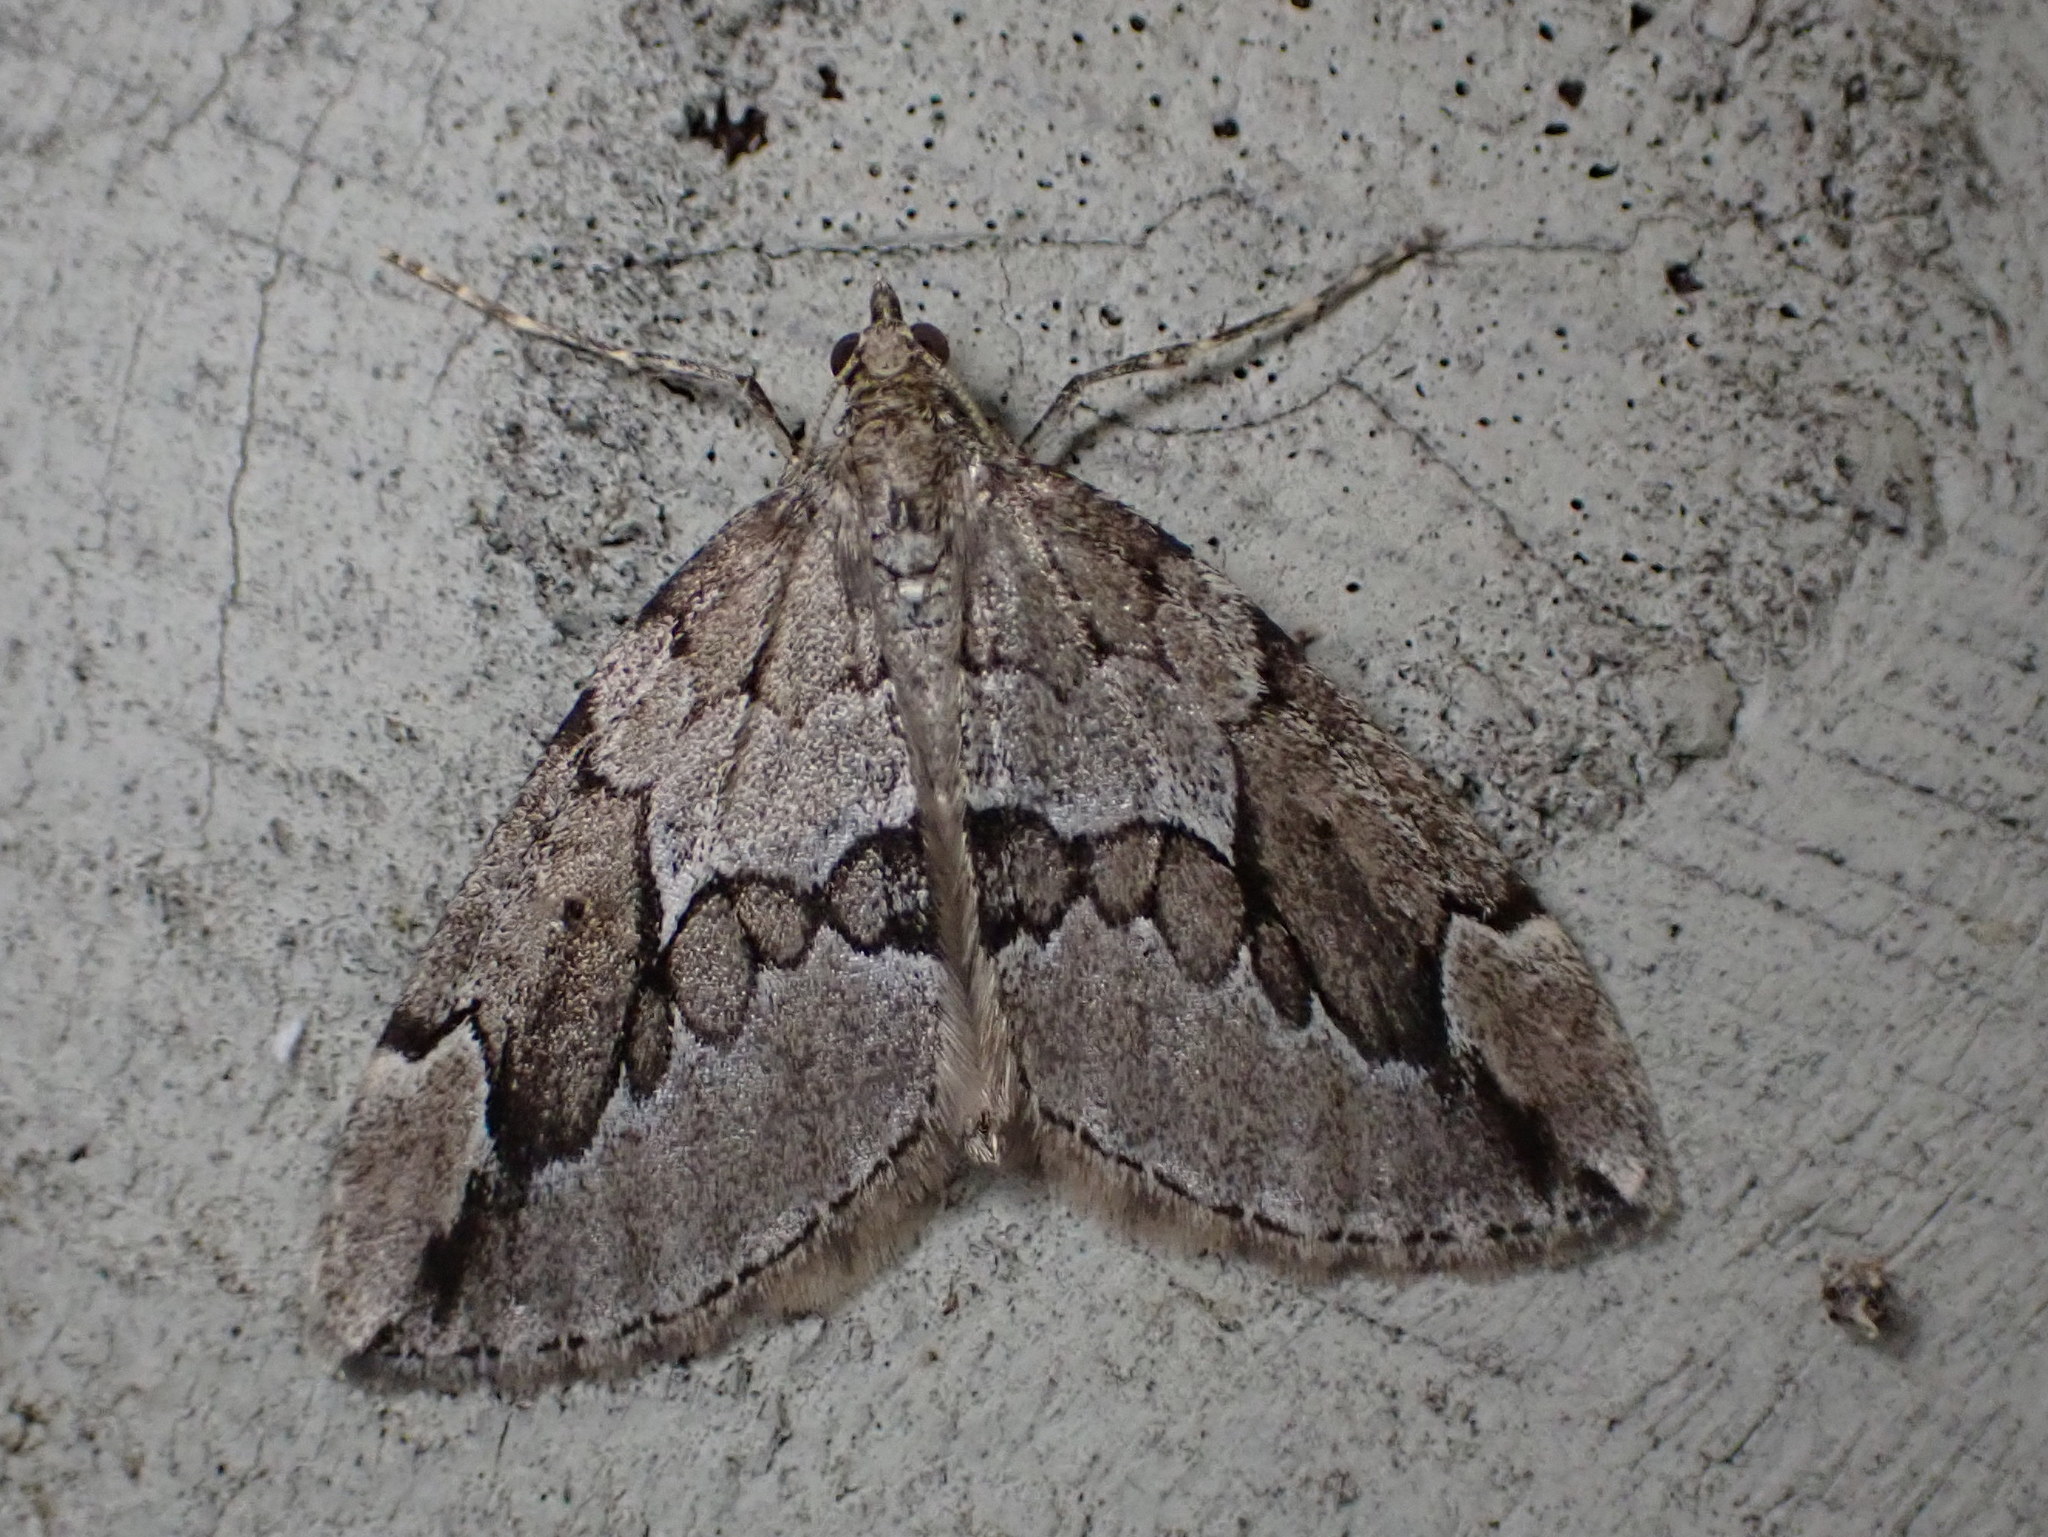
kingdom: Animalia
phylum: Arthropoda
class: Insecta
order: Lepidoptera
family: Geometridae
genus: Thera
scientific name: Thera juniperata
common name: Juniper carpet
